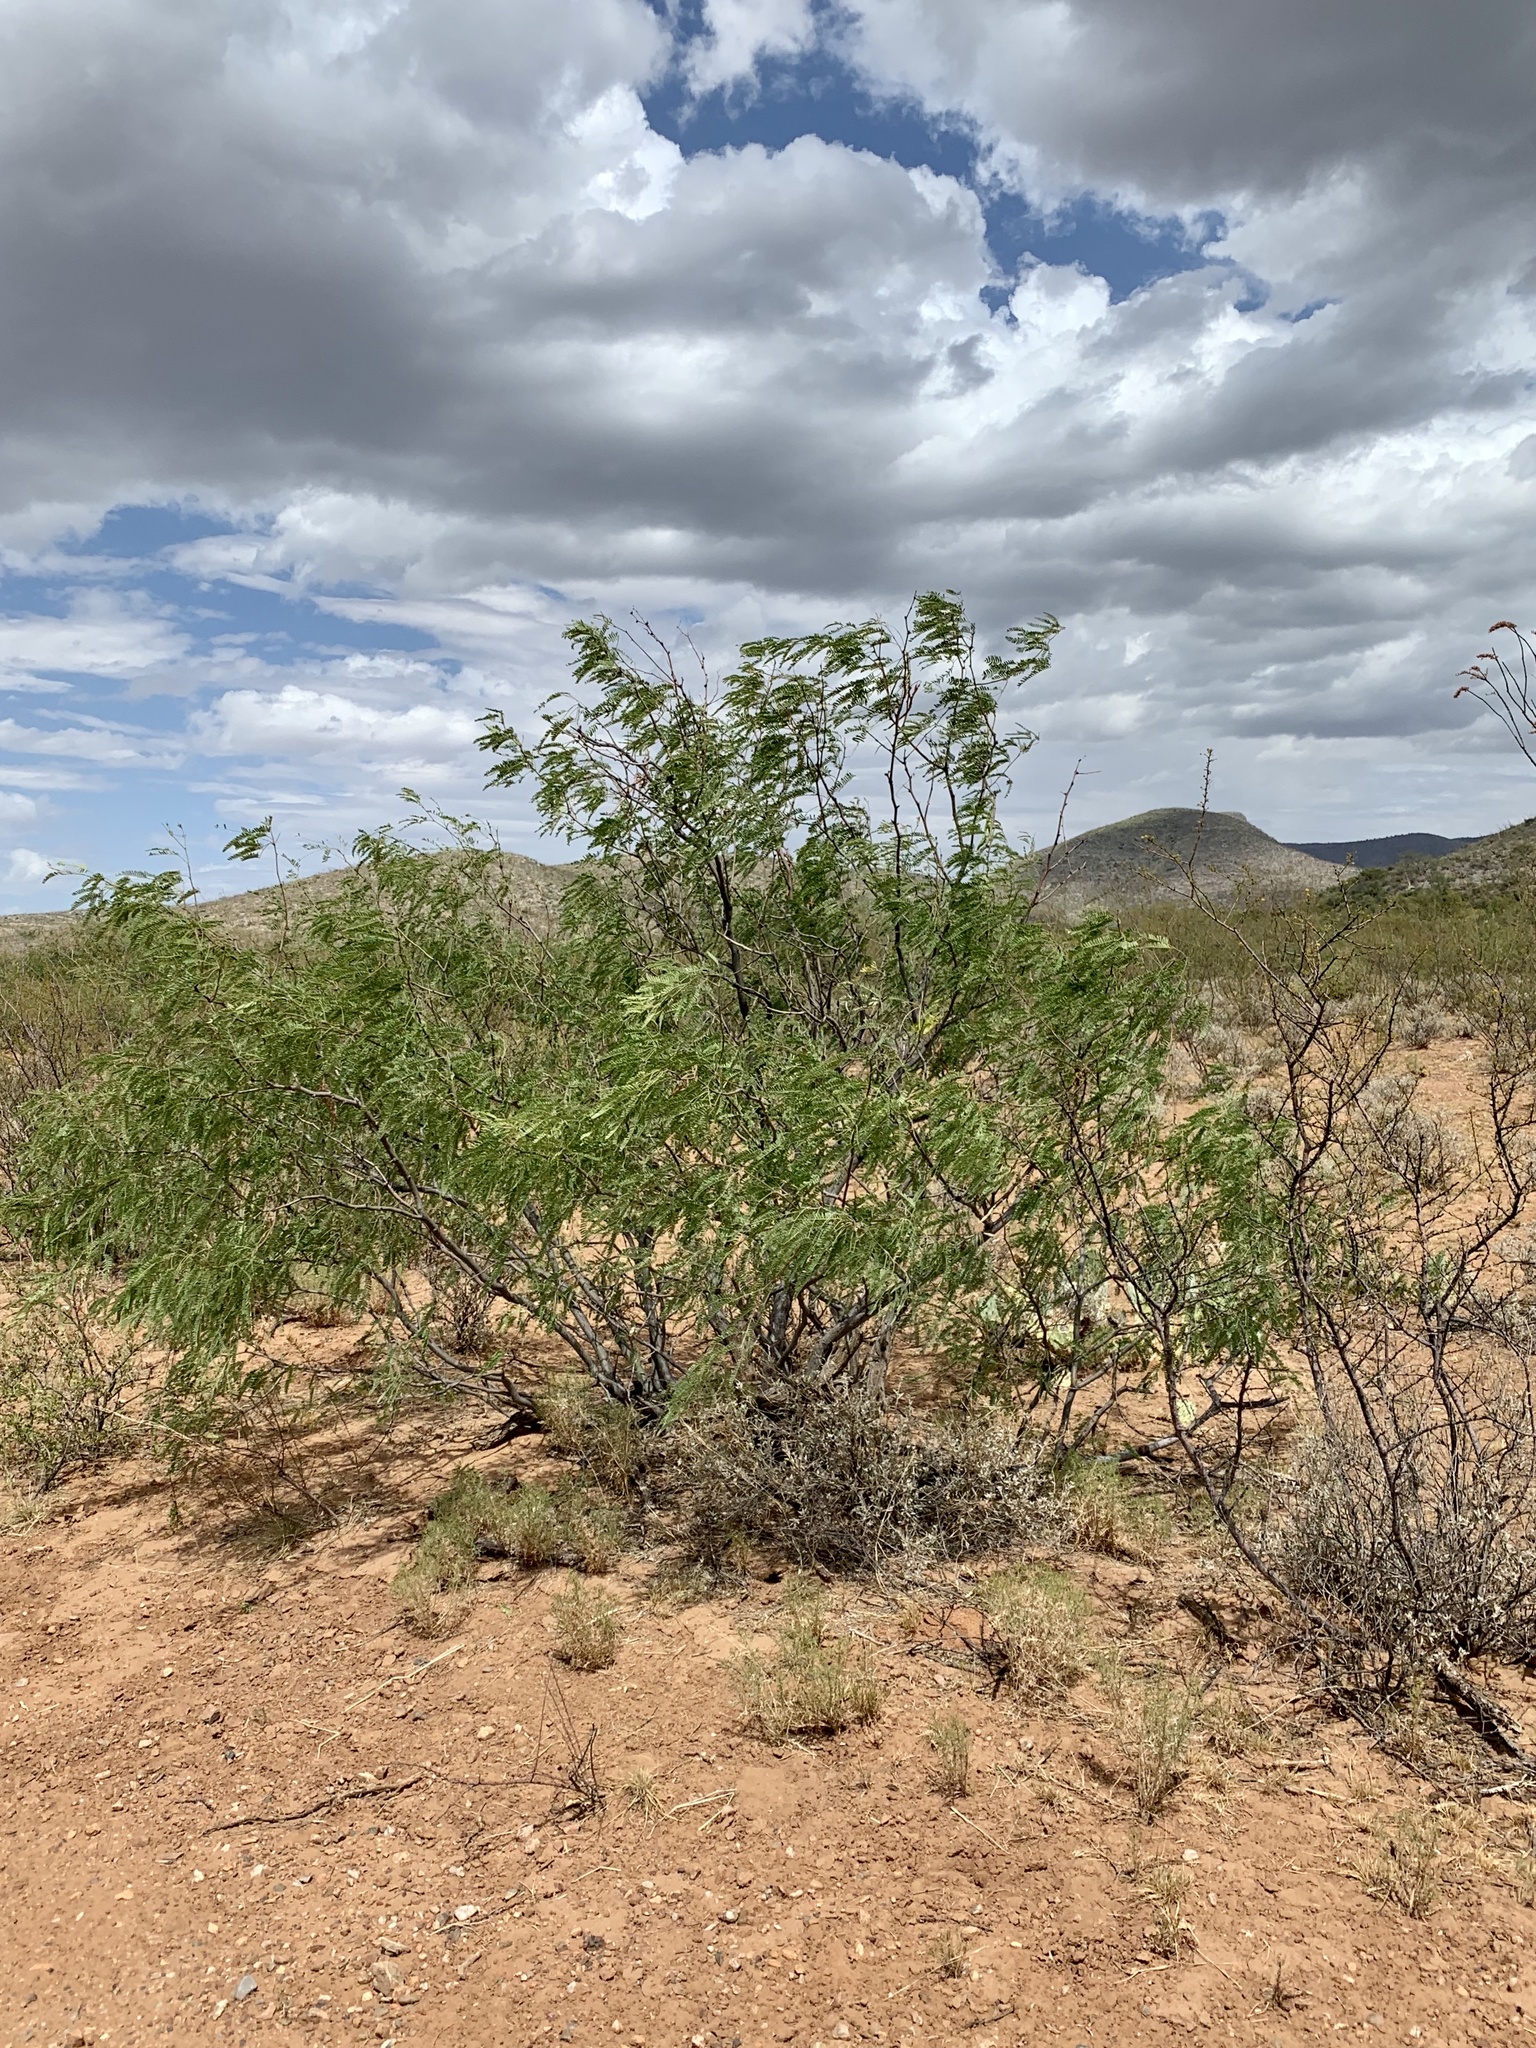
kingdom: Plantae
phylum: Tracheophyta
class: Magnoliopsida
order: Fabales
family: Fabaceae
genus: Prosopis
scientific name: Prosopis velutina
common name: Velvet mesquite
